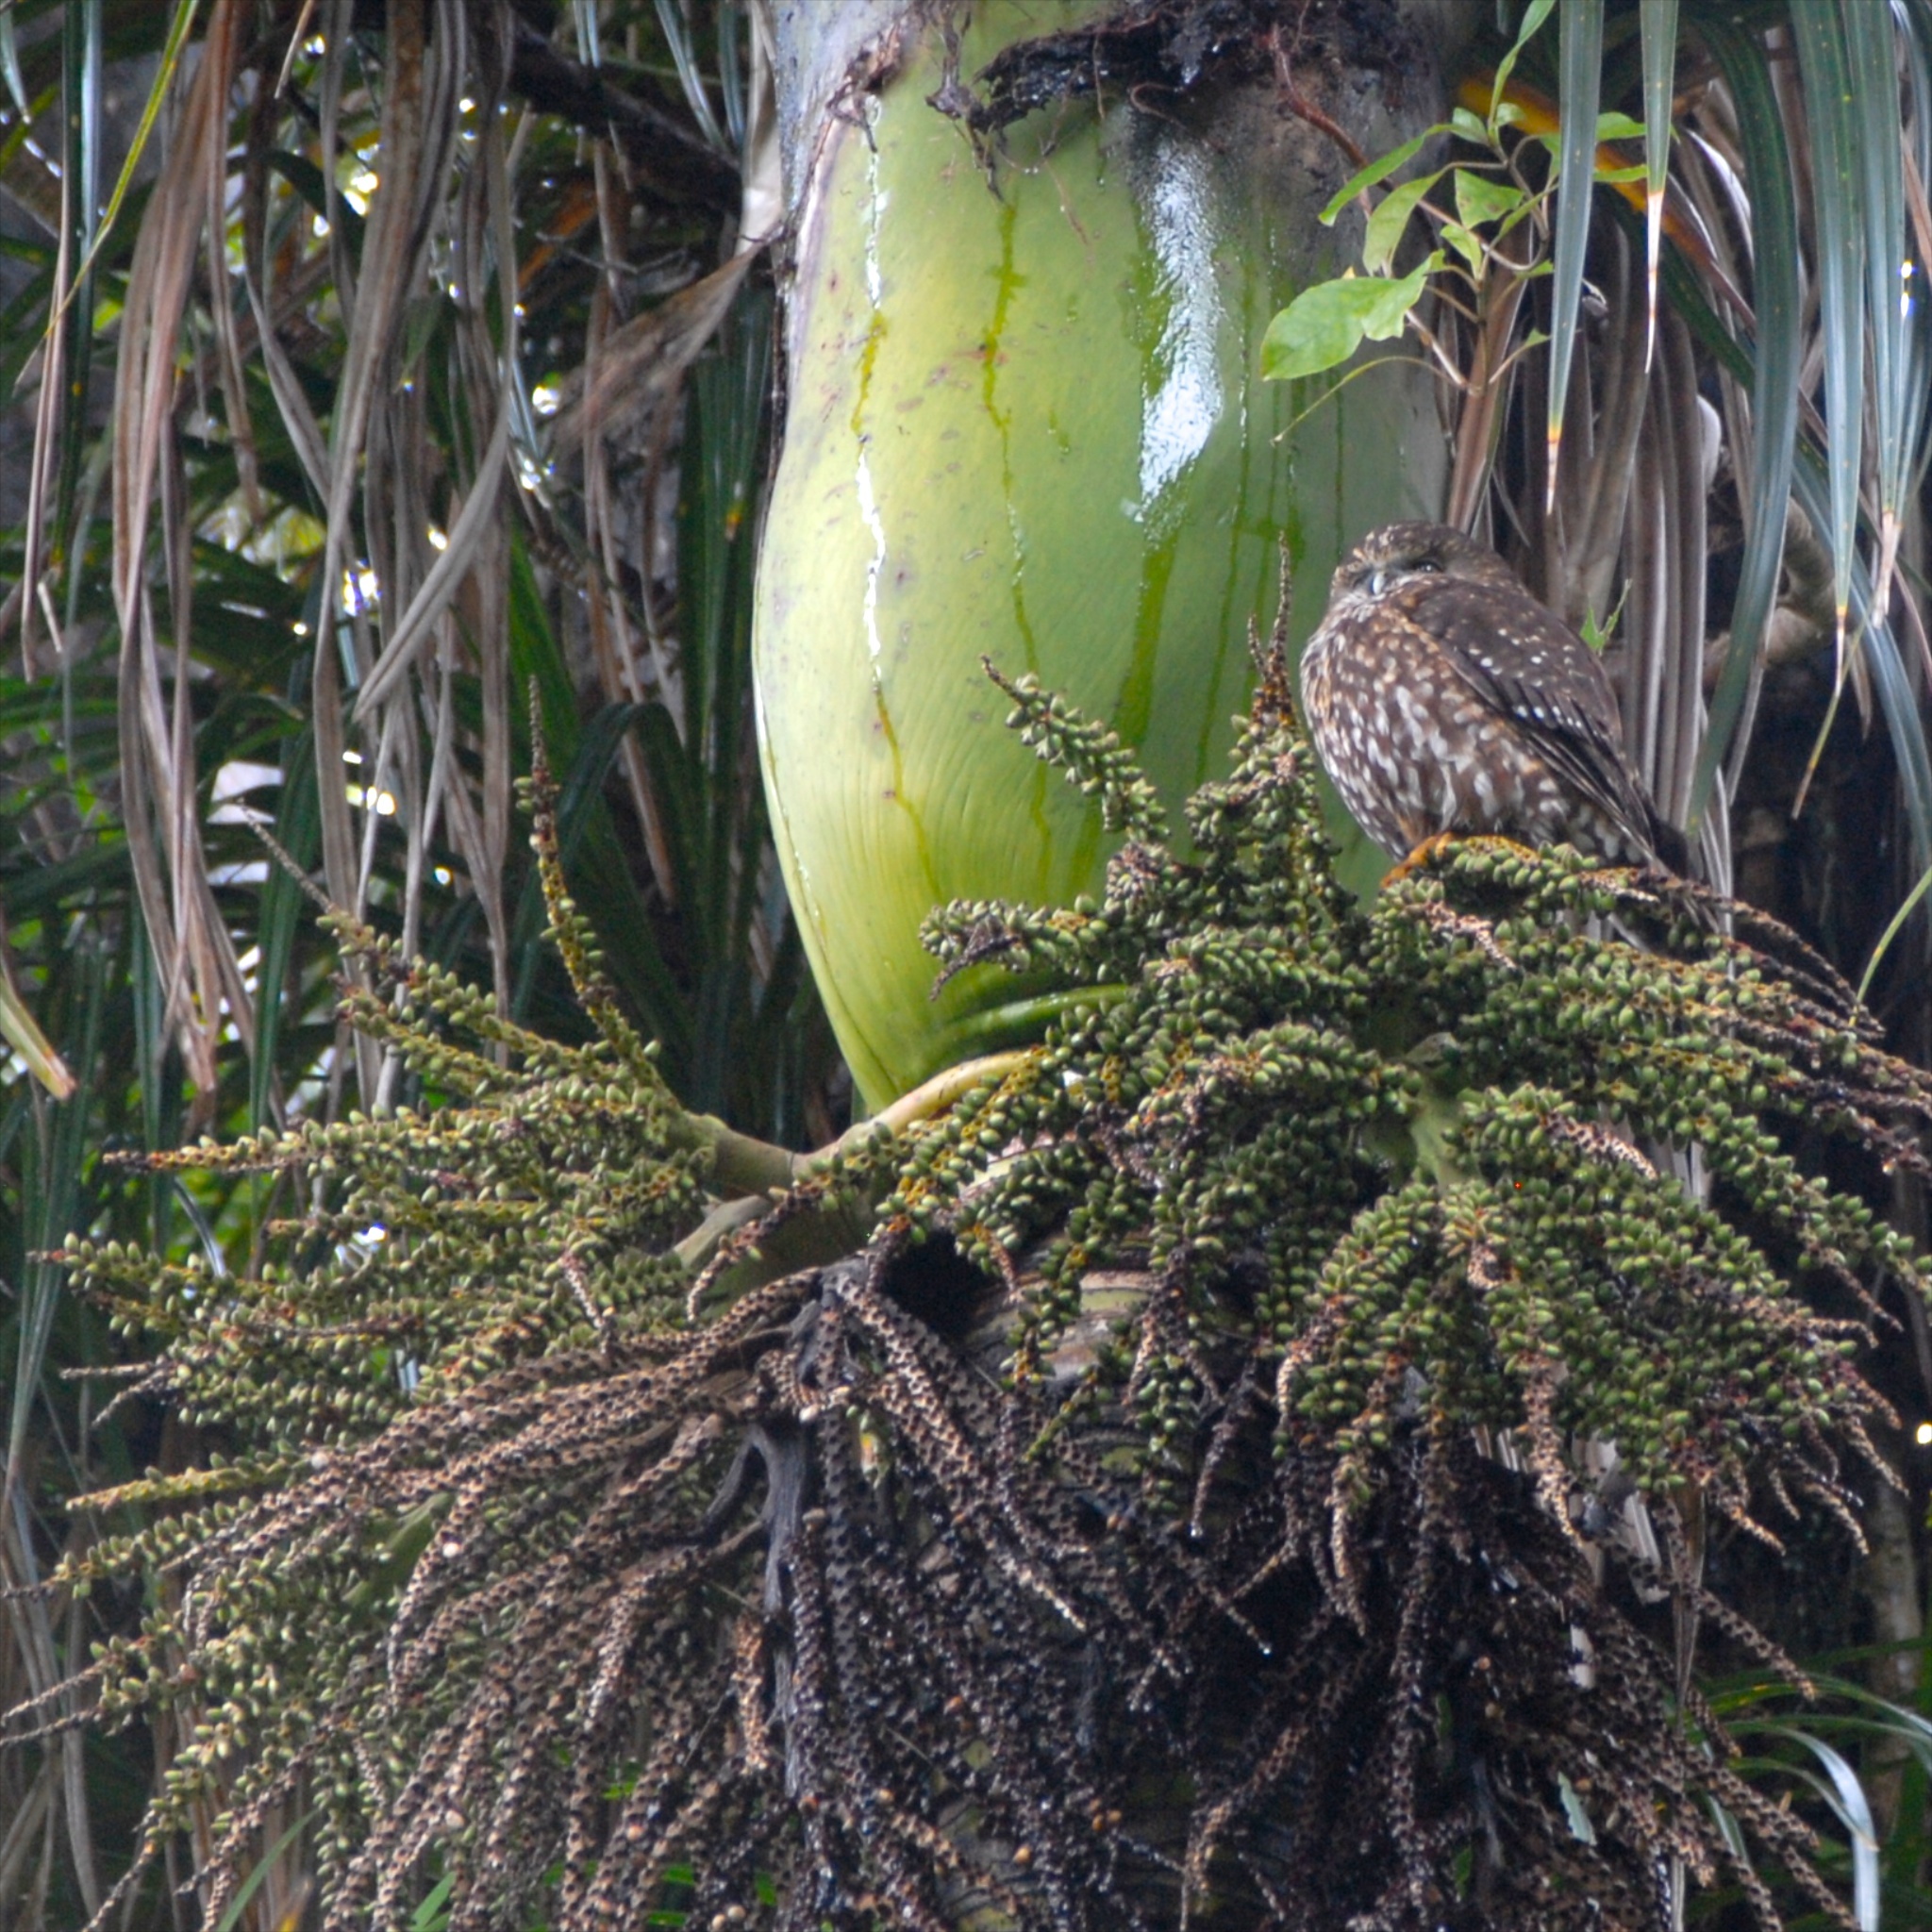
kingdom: Animalia
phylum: Chordata
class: Aves
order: Strigiformes
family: Strigidae
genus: Ninox
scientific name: Ninox novaeseelandiae
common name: Morepork
